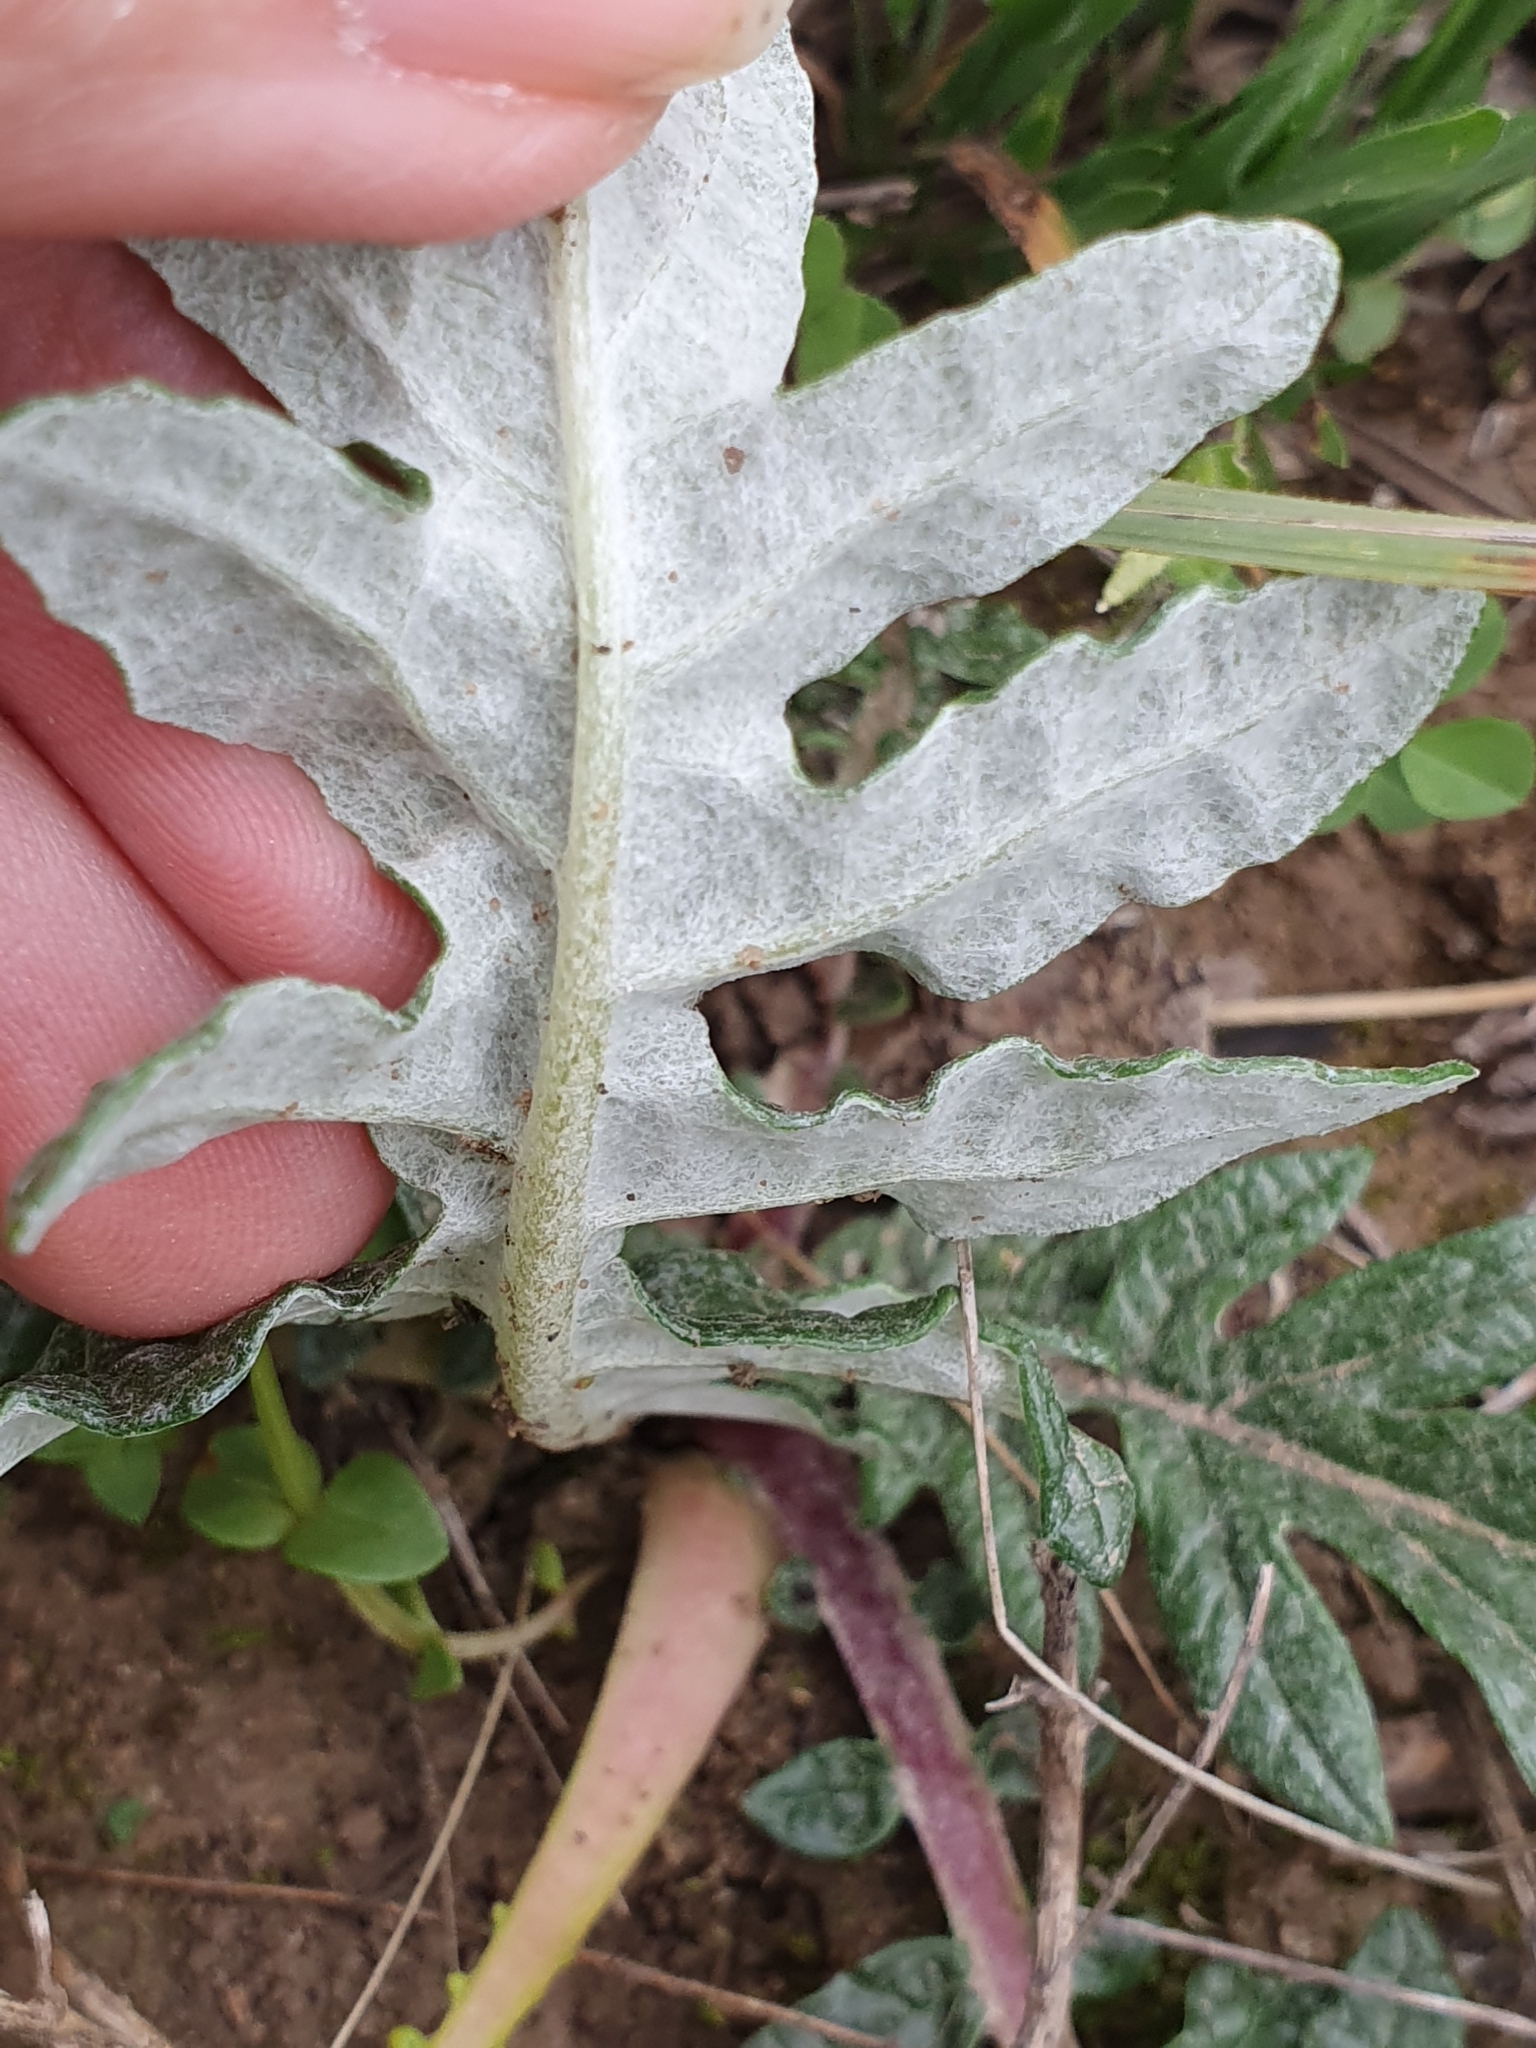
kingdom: Plantae
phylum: Tracheophyta
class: Magnoliopsida
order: Asterales
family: Asteraceae
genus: Leuzea
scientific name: Leuzea acaulis
